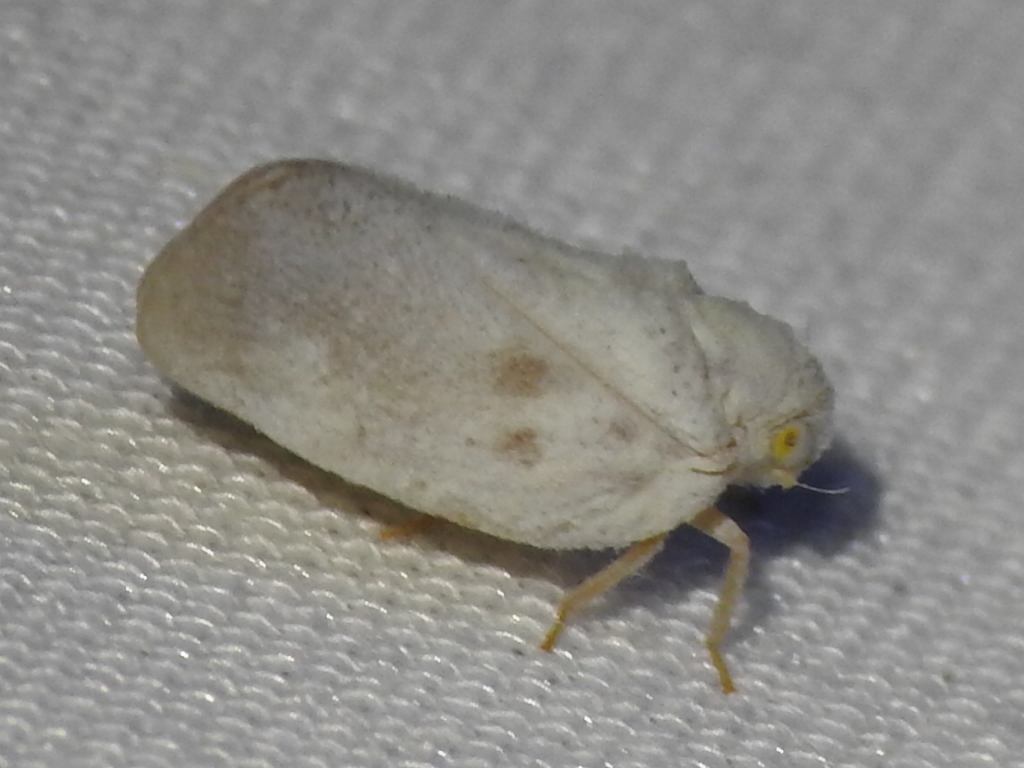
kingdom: Animalia
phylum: Arthropoda
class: Insecta
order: Hemiptera
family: Flatidae
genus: Metcalfa
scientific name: Metcalfa pruinosa
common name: Citrus flatid planthopper
